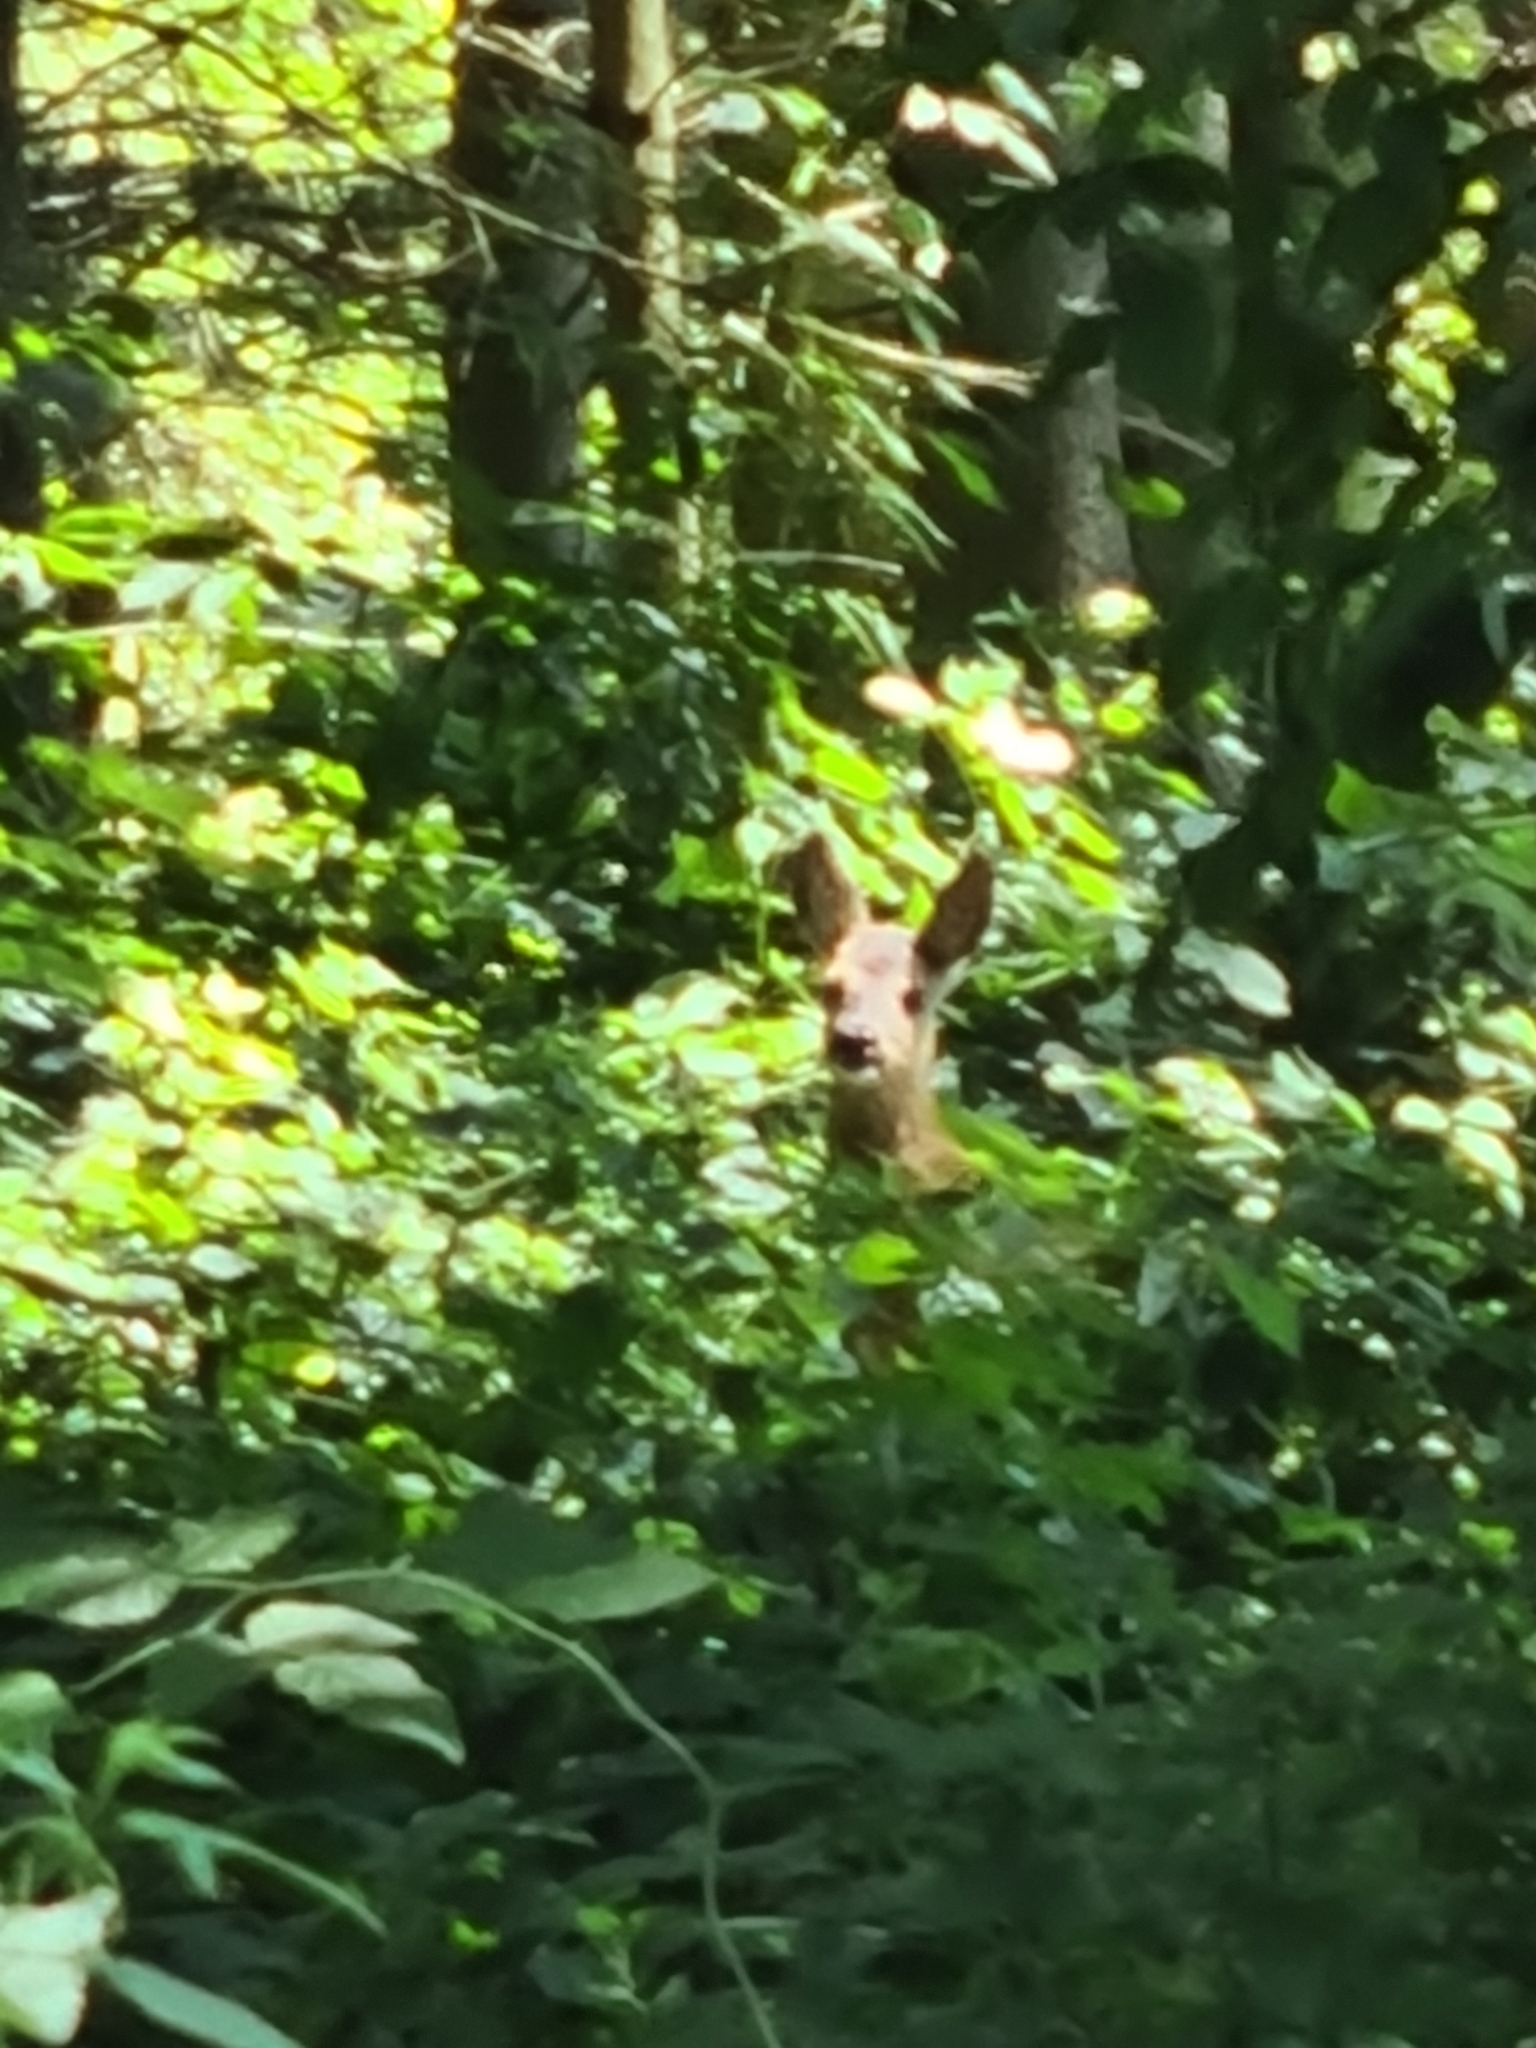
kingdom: Animalia
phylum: Chordata
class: Mammalia
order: Artiodactyla
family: Cervidae
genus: Capreolus
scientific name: Capreolus capreolus
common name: Western roe deer
